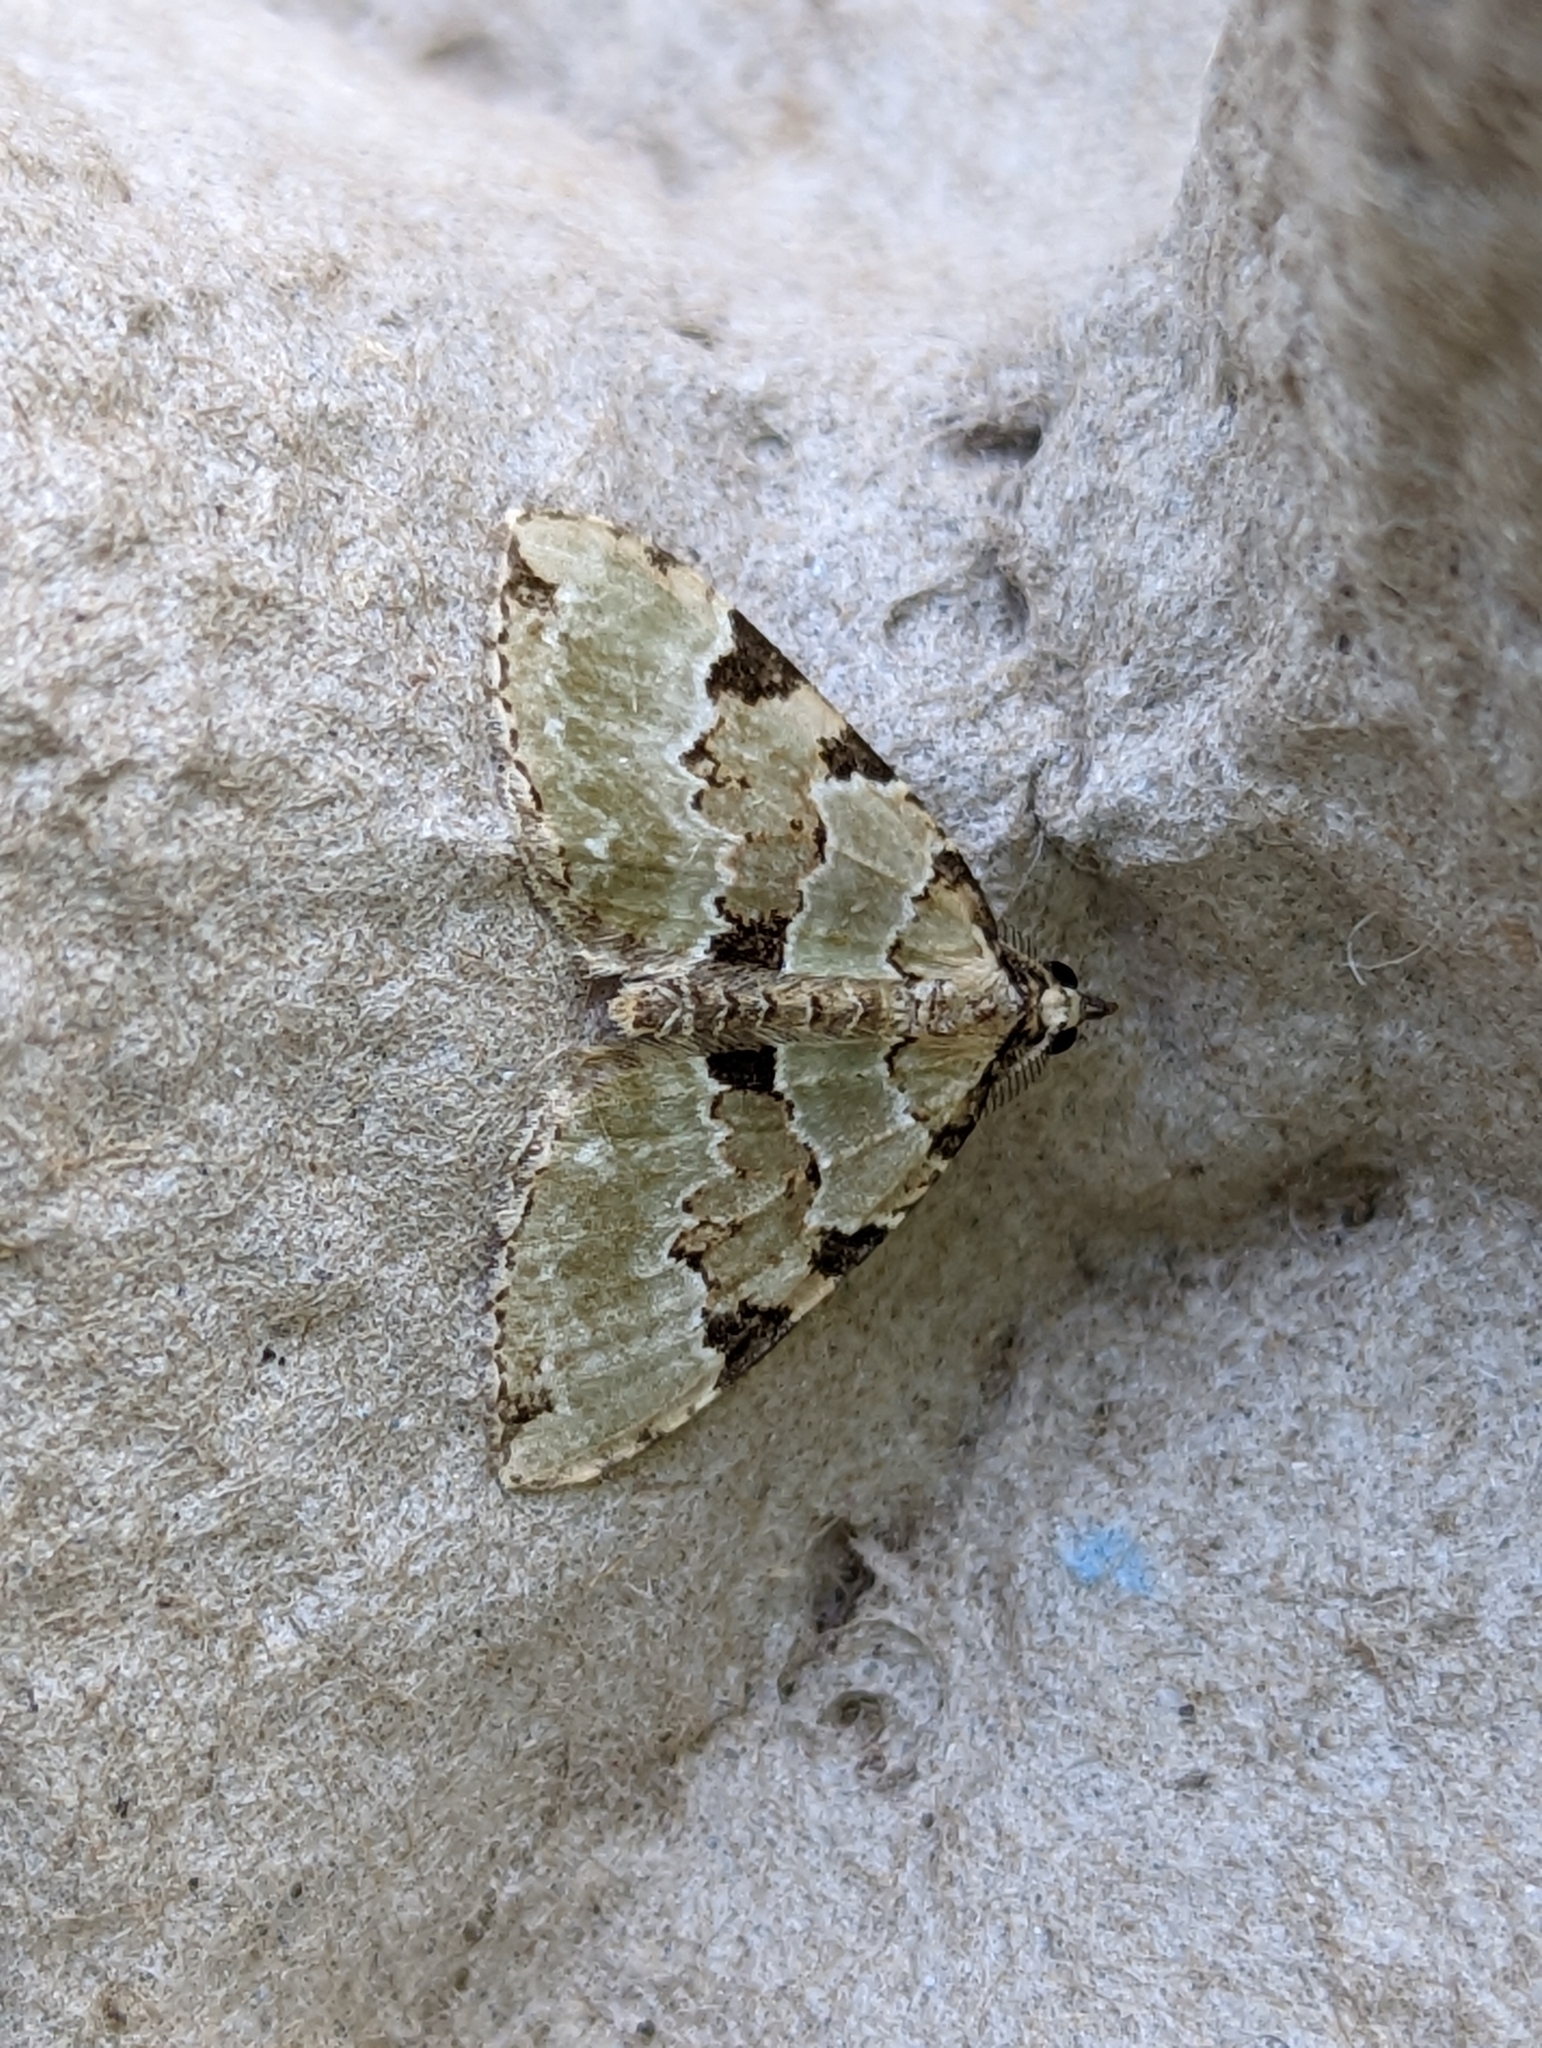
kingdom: Animalia
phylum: Arthropoda
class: Insecta
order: Lepidoptera
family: Geometridae
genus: Colostygia
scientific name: Colostygia pectinataria
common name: Green carpet
